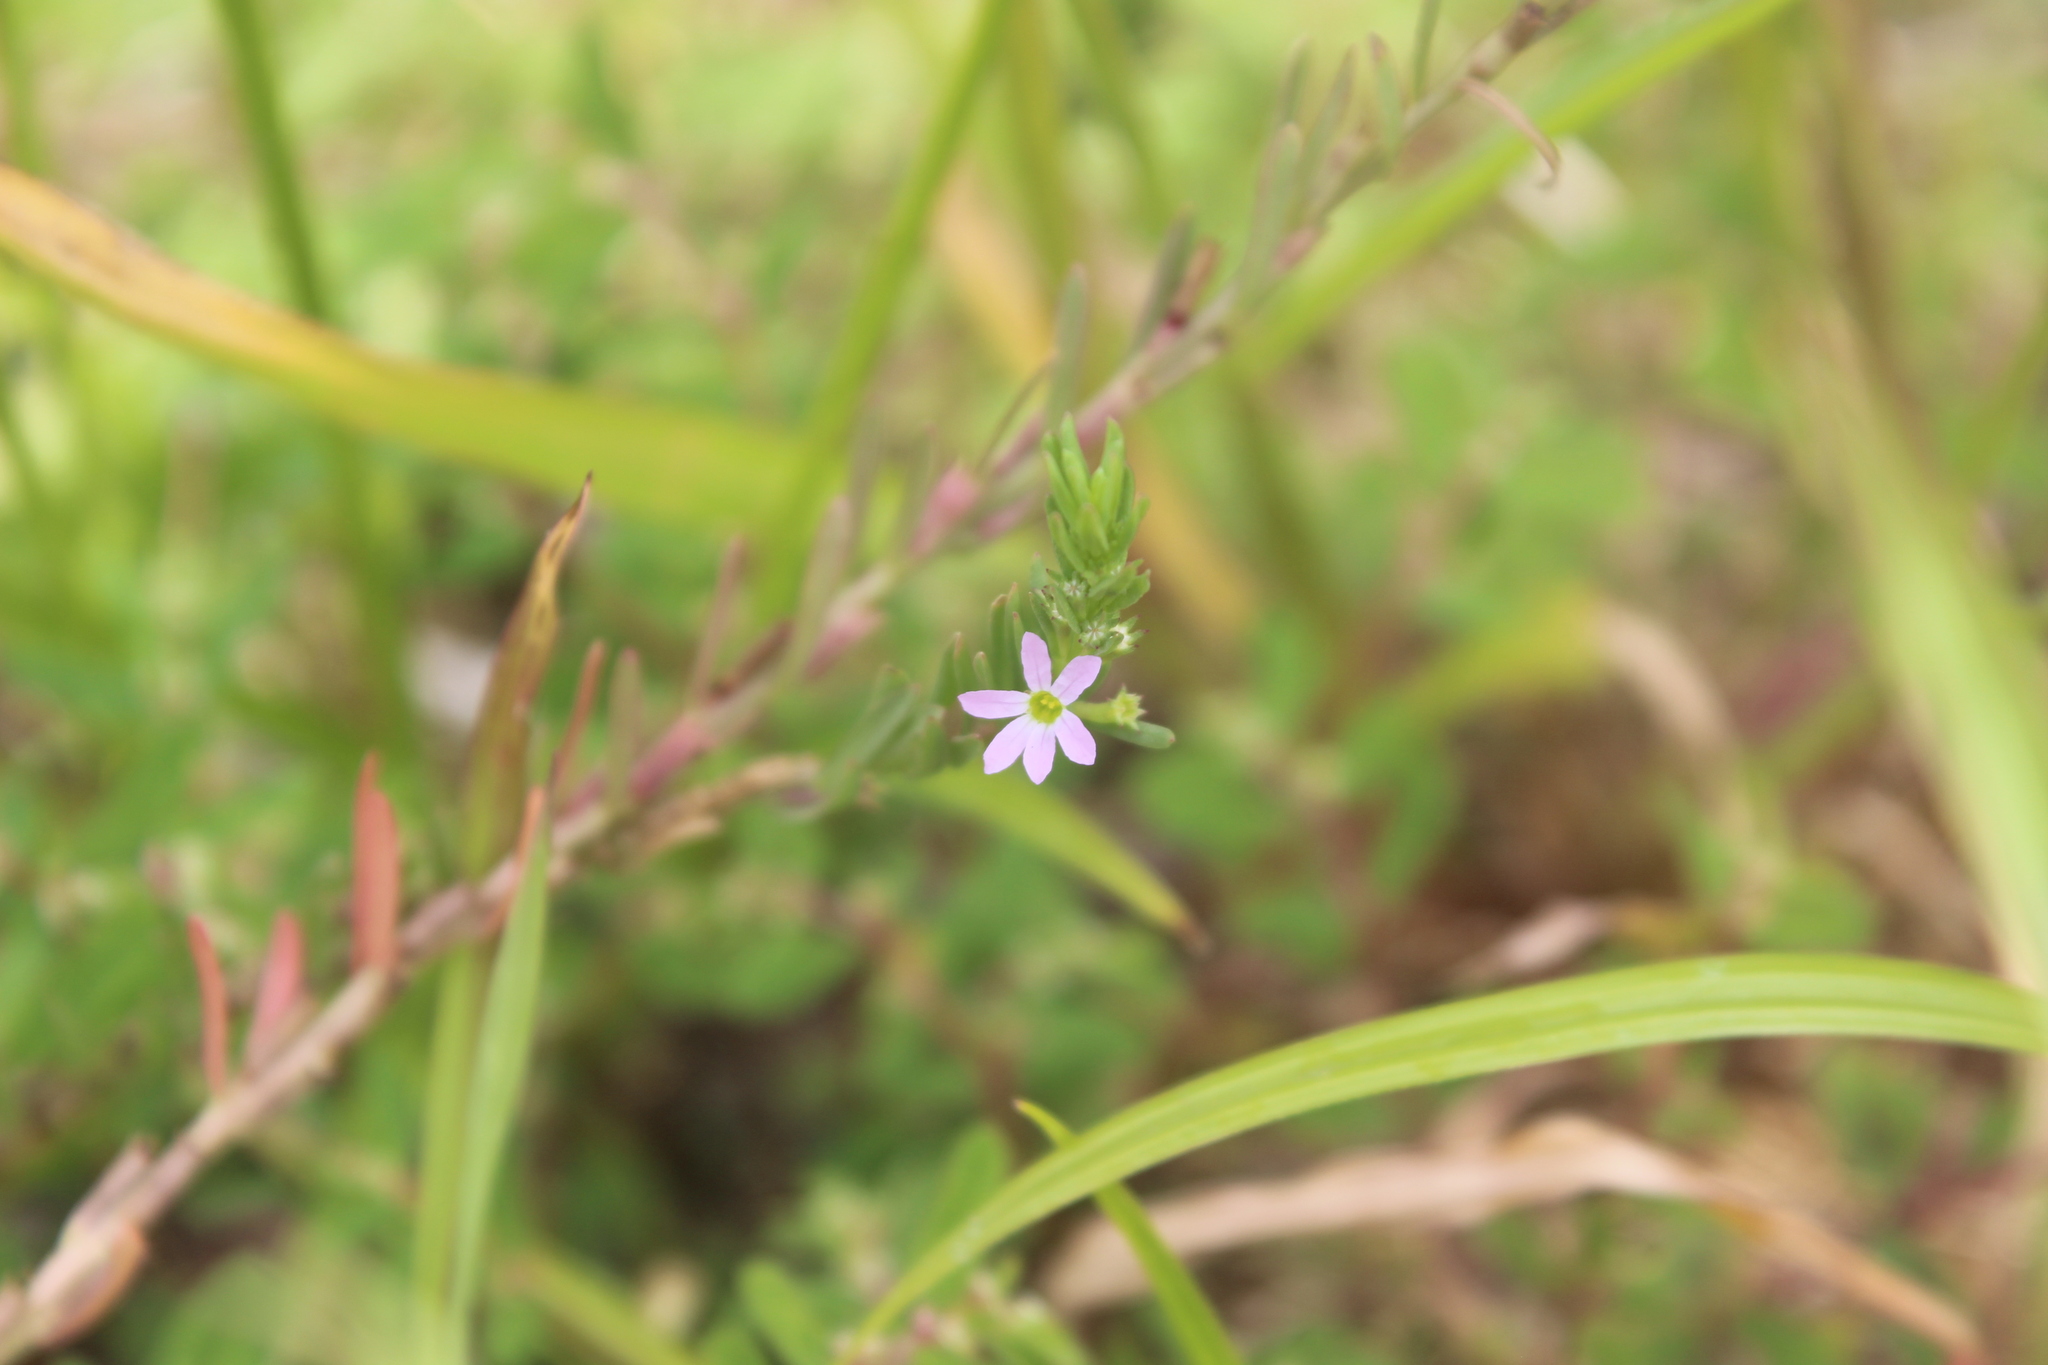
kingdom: Plantae
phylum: Tracheophyta
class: Magnoliopsida
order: Myrtales
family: Lythraceae
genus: Lythrum
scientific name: Lythrum hyssopifolia
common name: Grass-poly
